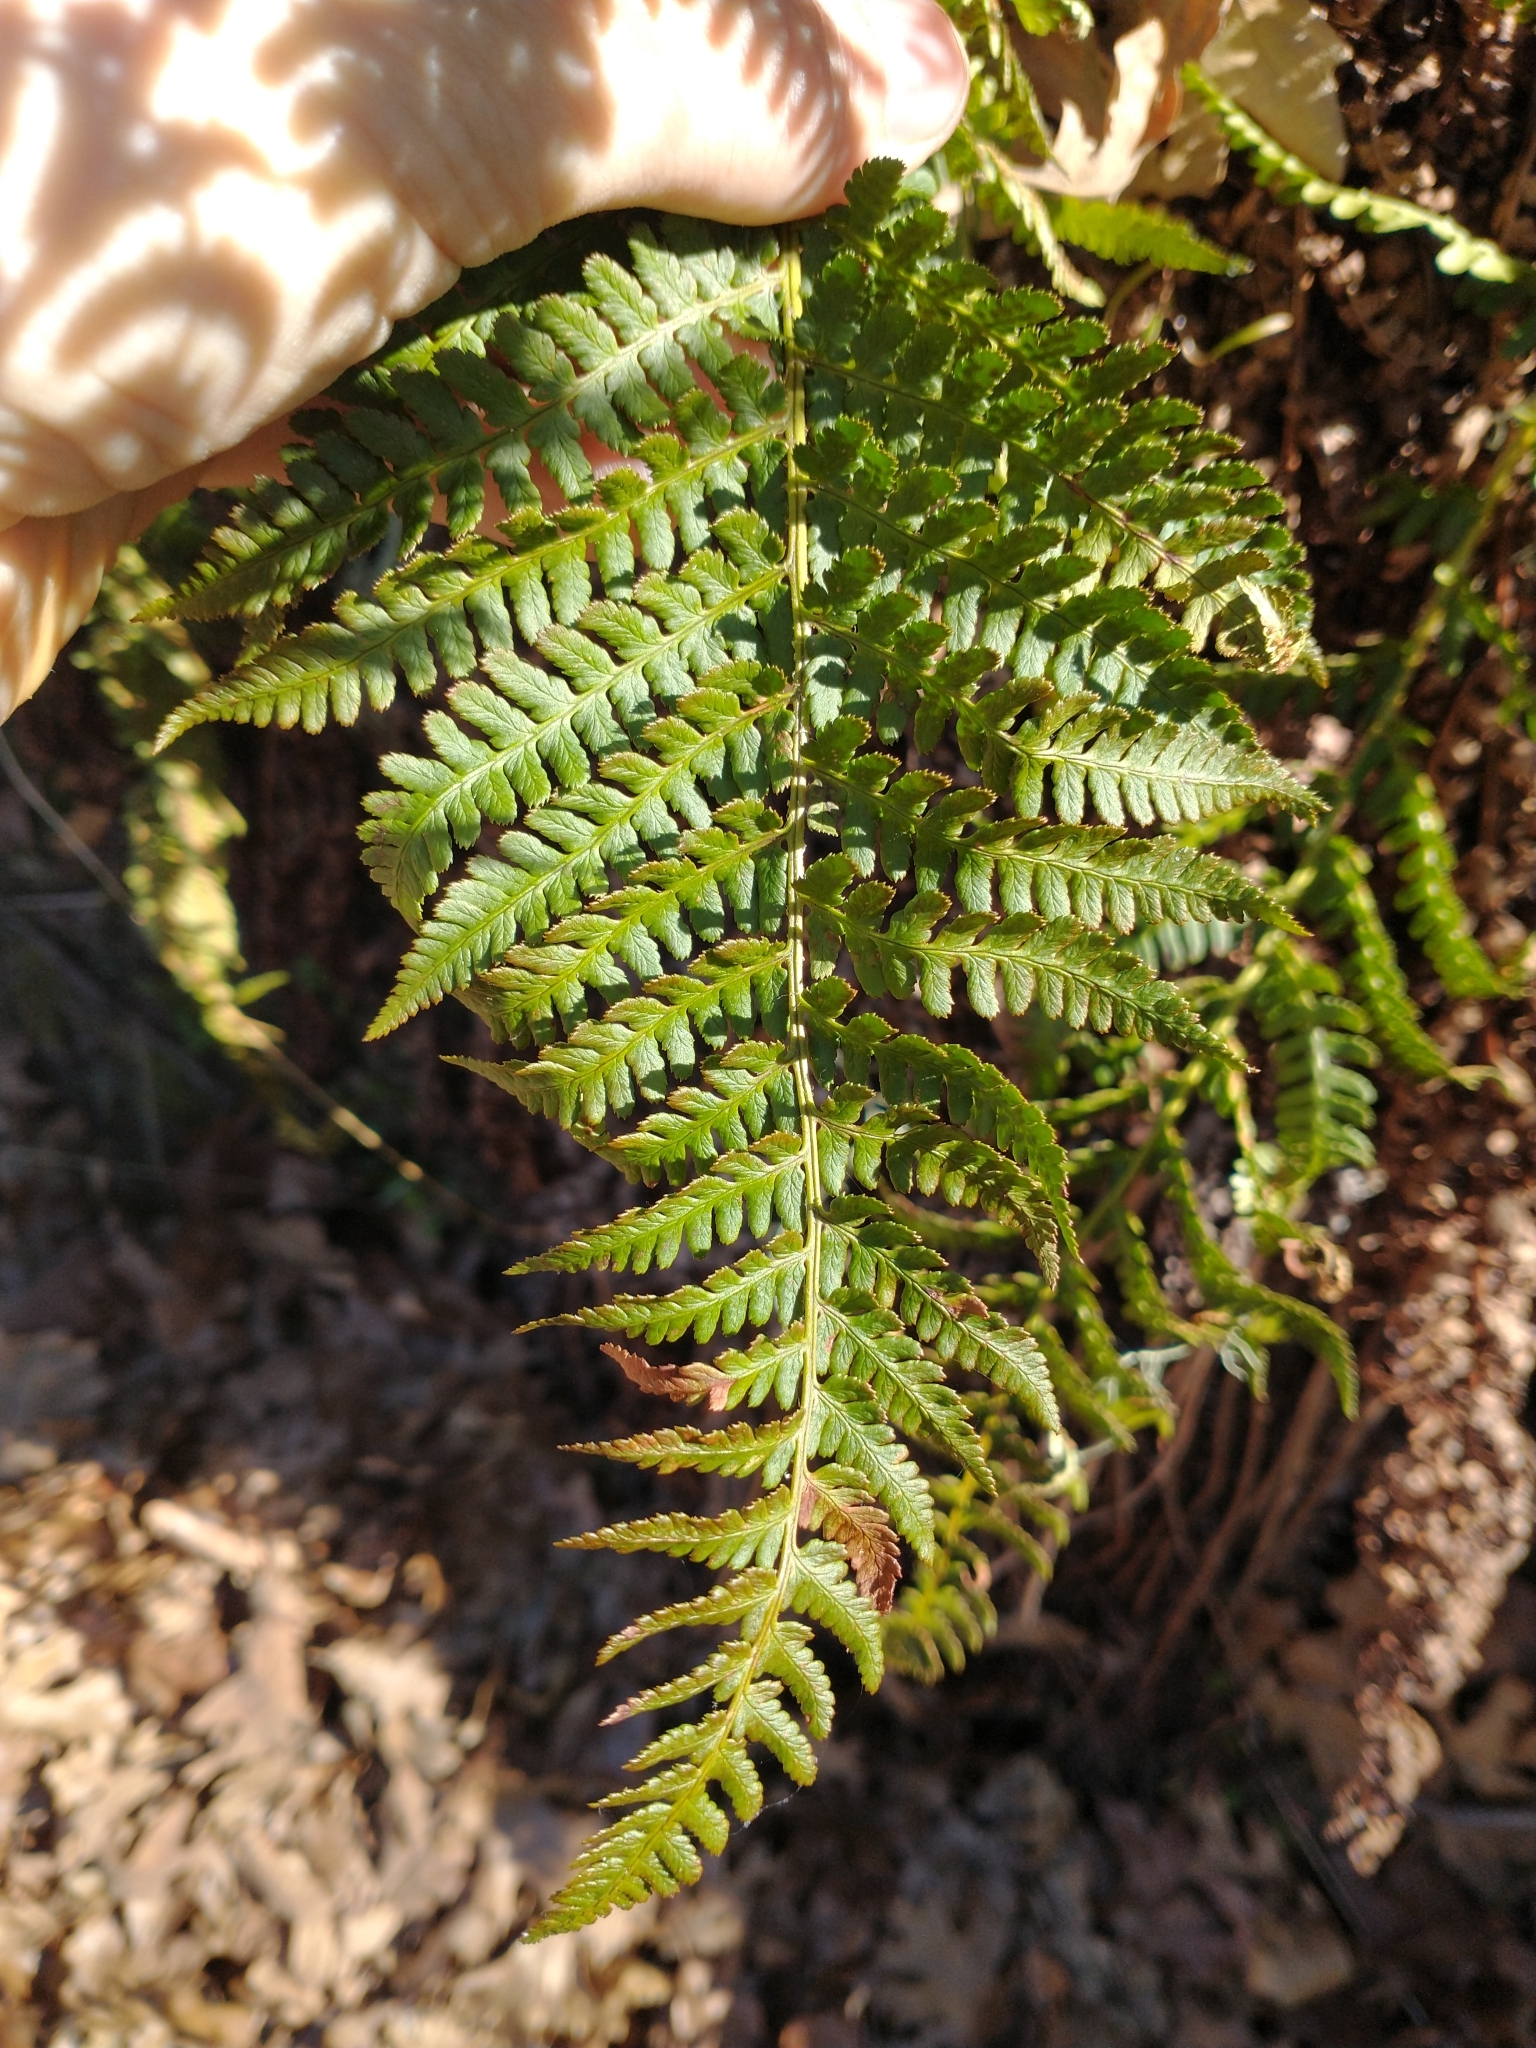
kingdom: Plantae
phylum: Tracheophyta
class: Polypodiopsida
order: Polypodiales
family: Dryopteridaceae
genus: Dryopteris
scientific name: Dryopteris arguta
